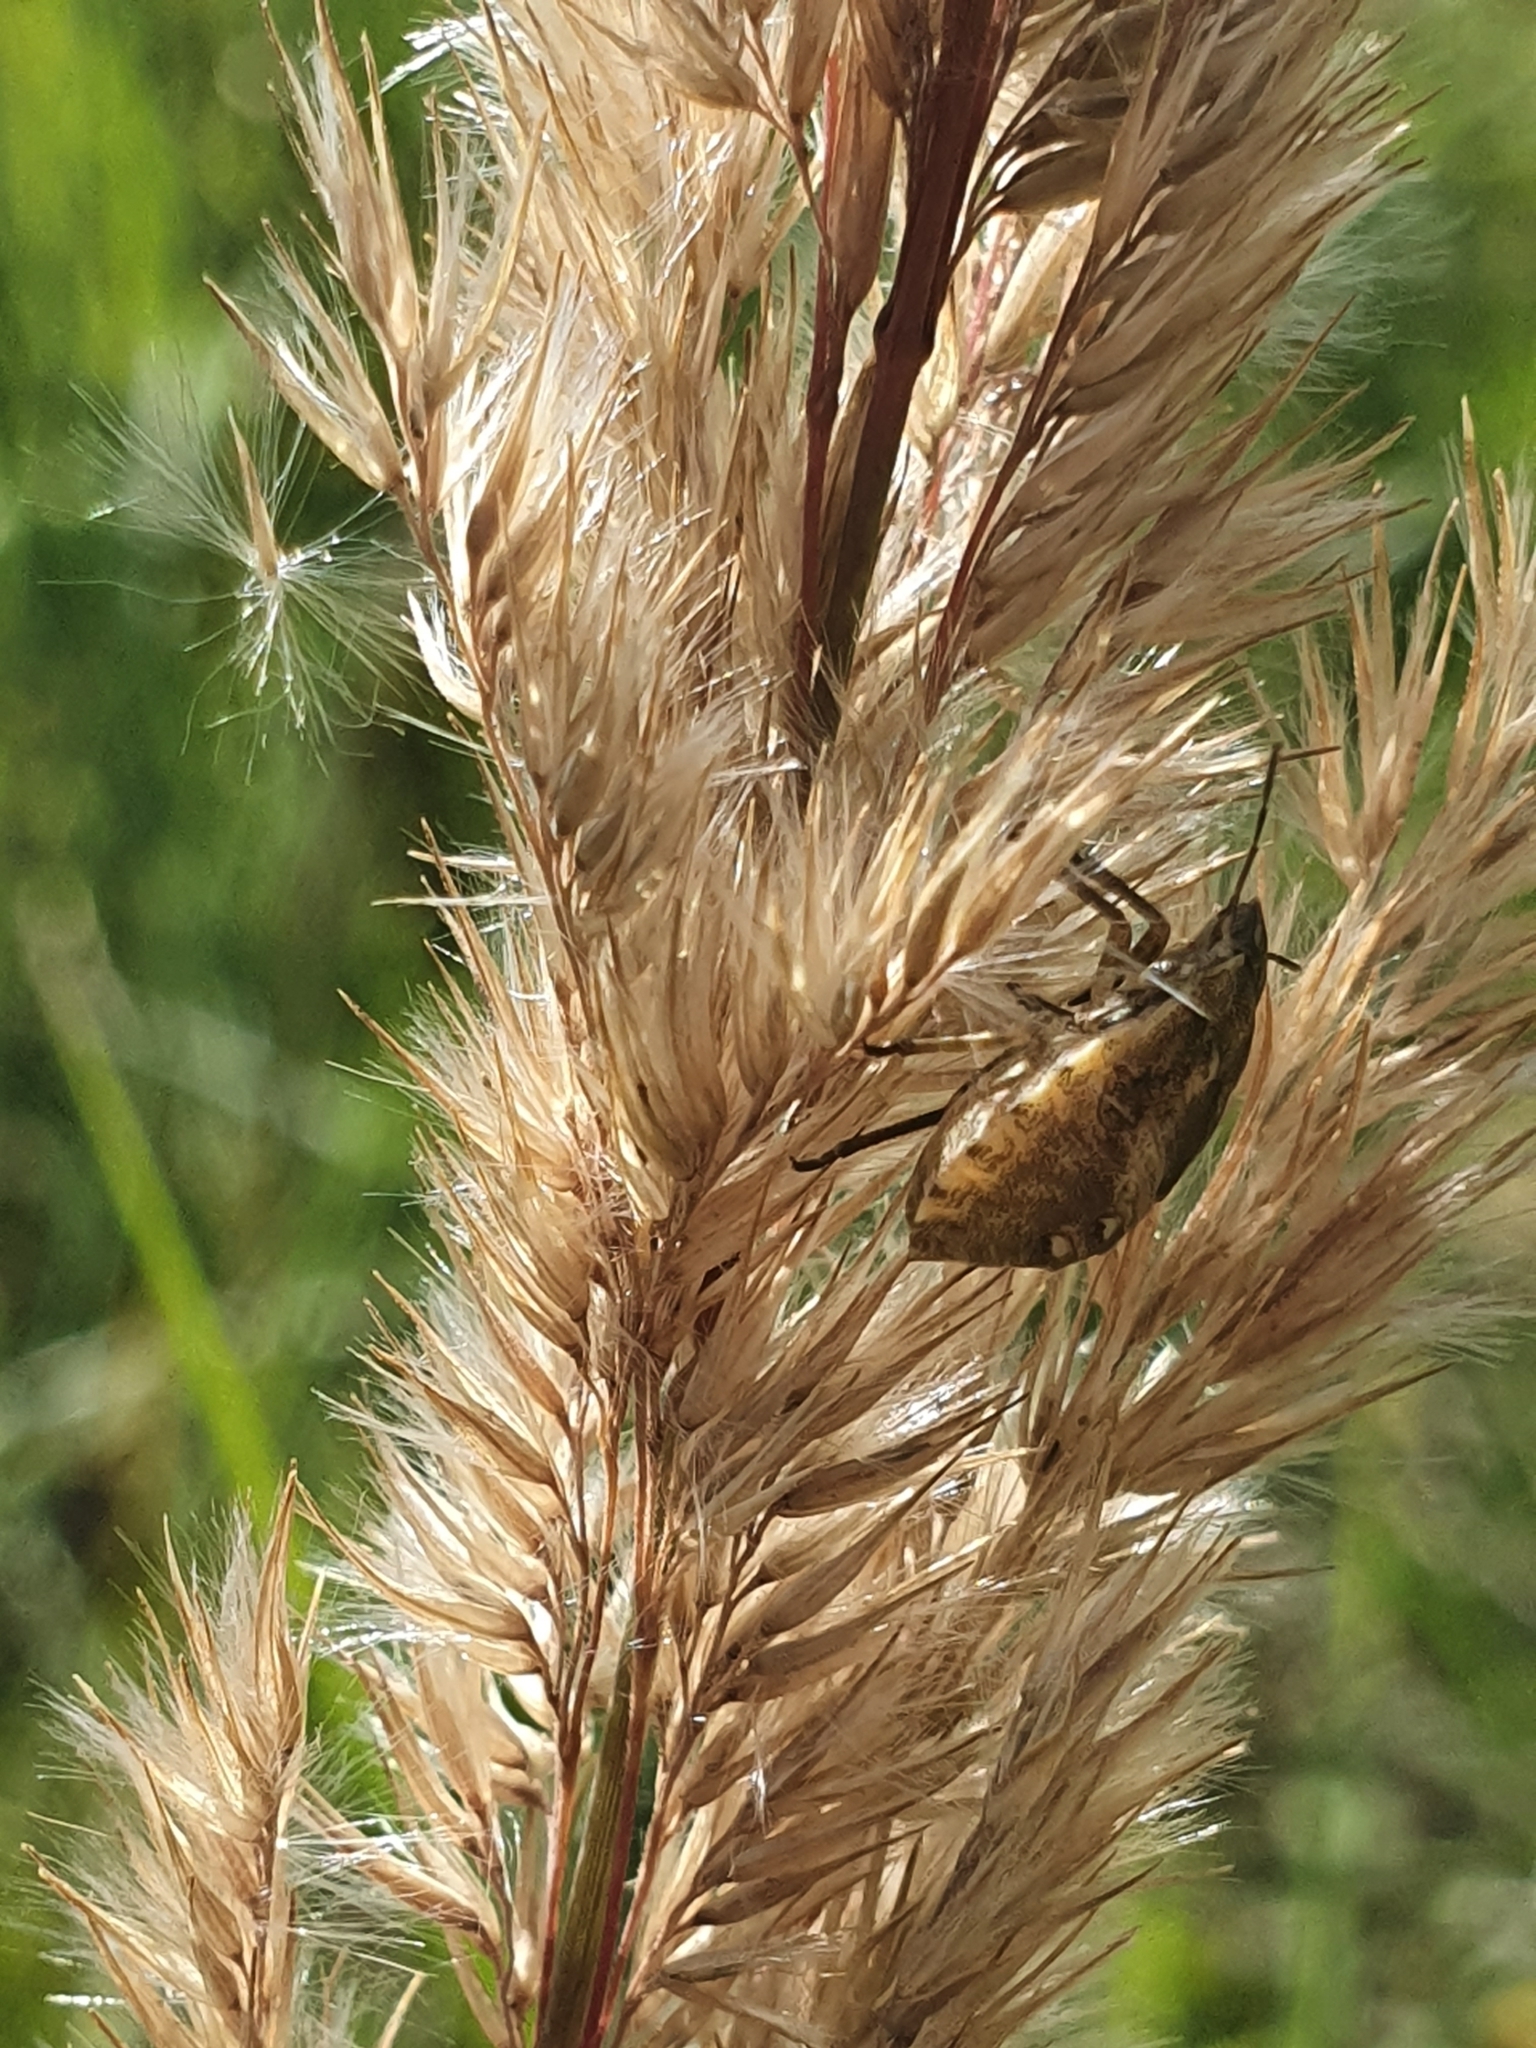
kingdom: Animalia
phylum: Arthropoda
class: Insecta
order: Hemiptera
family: Scutelleridae
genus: Eurygaster
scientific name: Eurygaster testudinaria
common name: Tortoise bug
